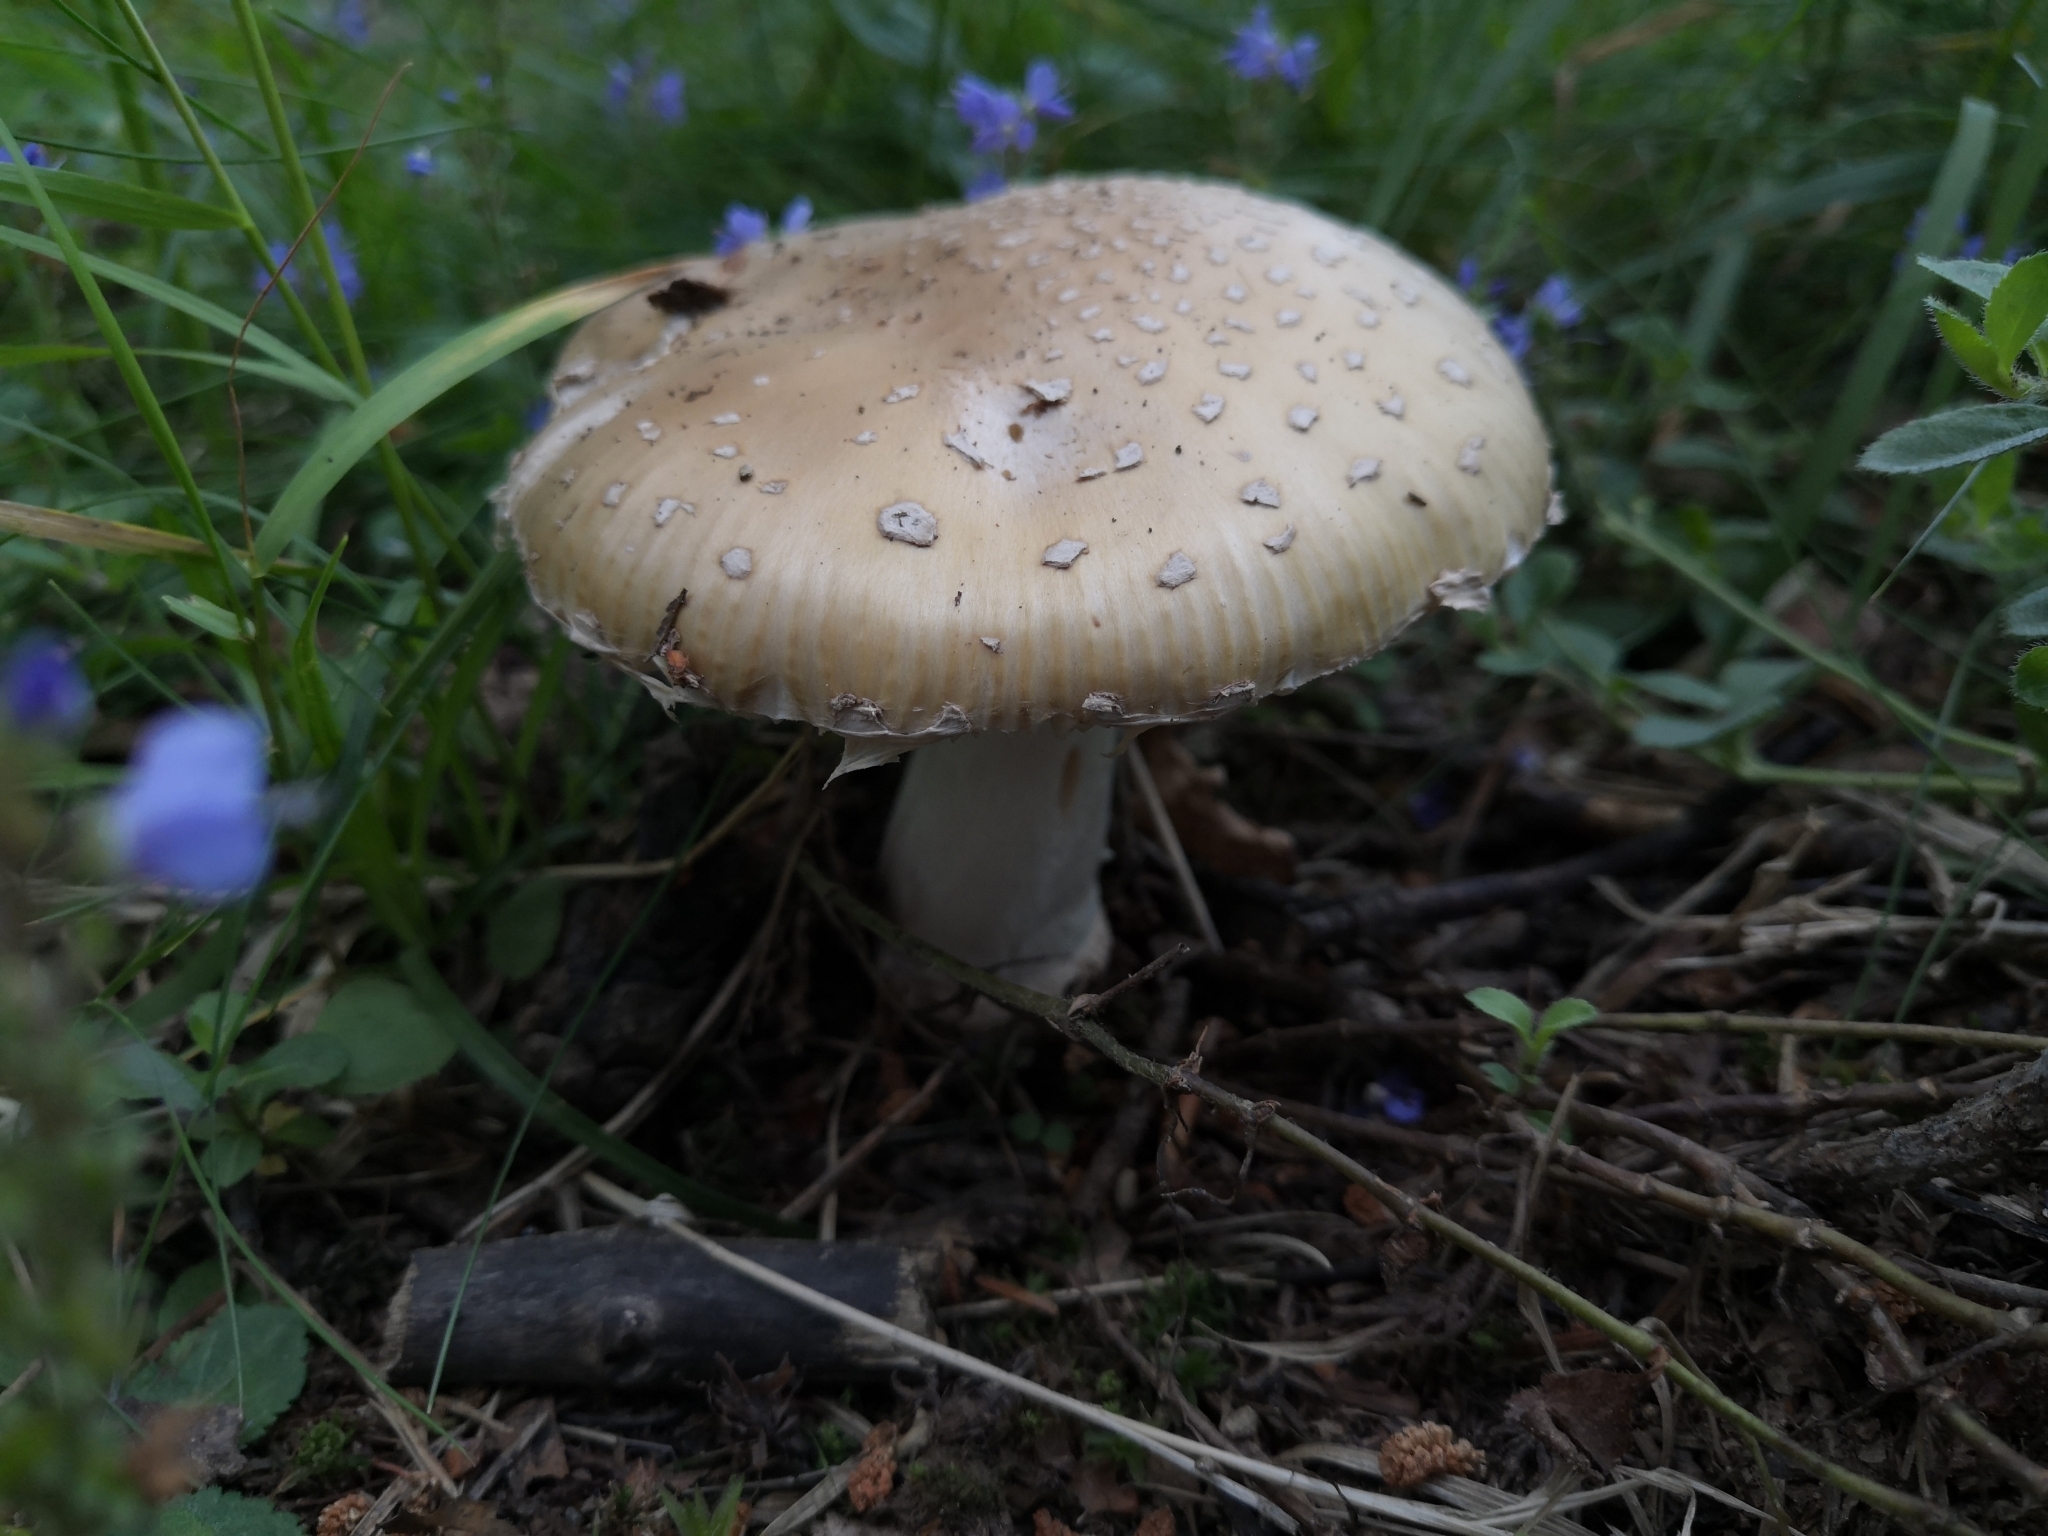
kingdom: Fungi
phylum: Basidiomycota
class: Agaricomycetes
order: Agaricales
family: Amanitaceae
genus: Amanita
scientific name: Amanita pantherina
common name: Panthercap
